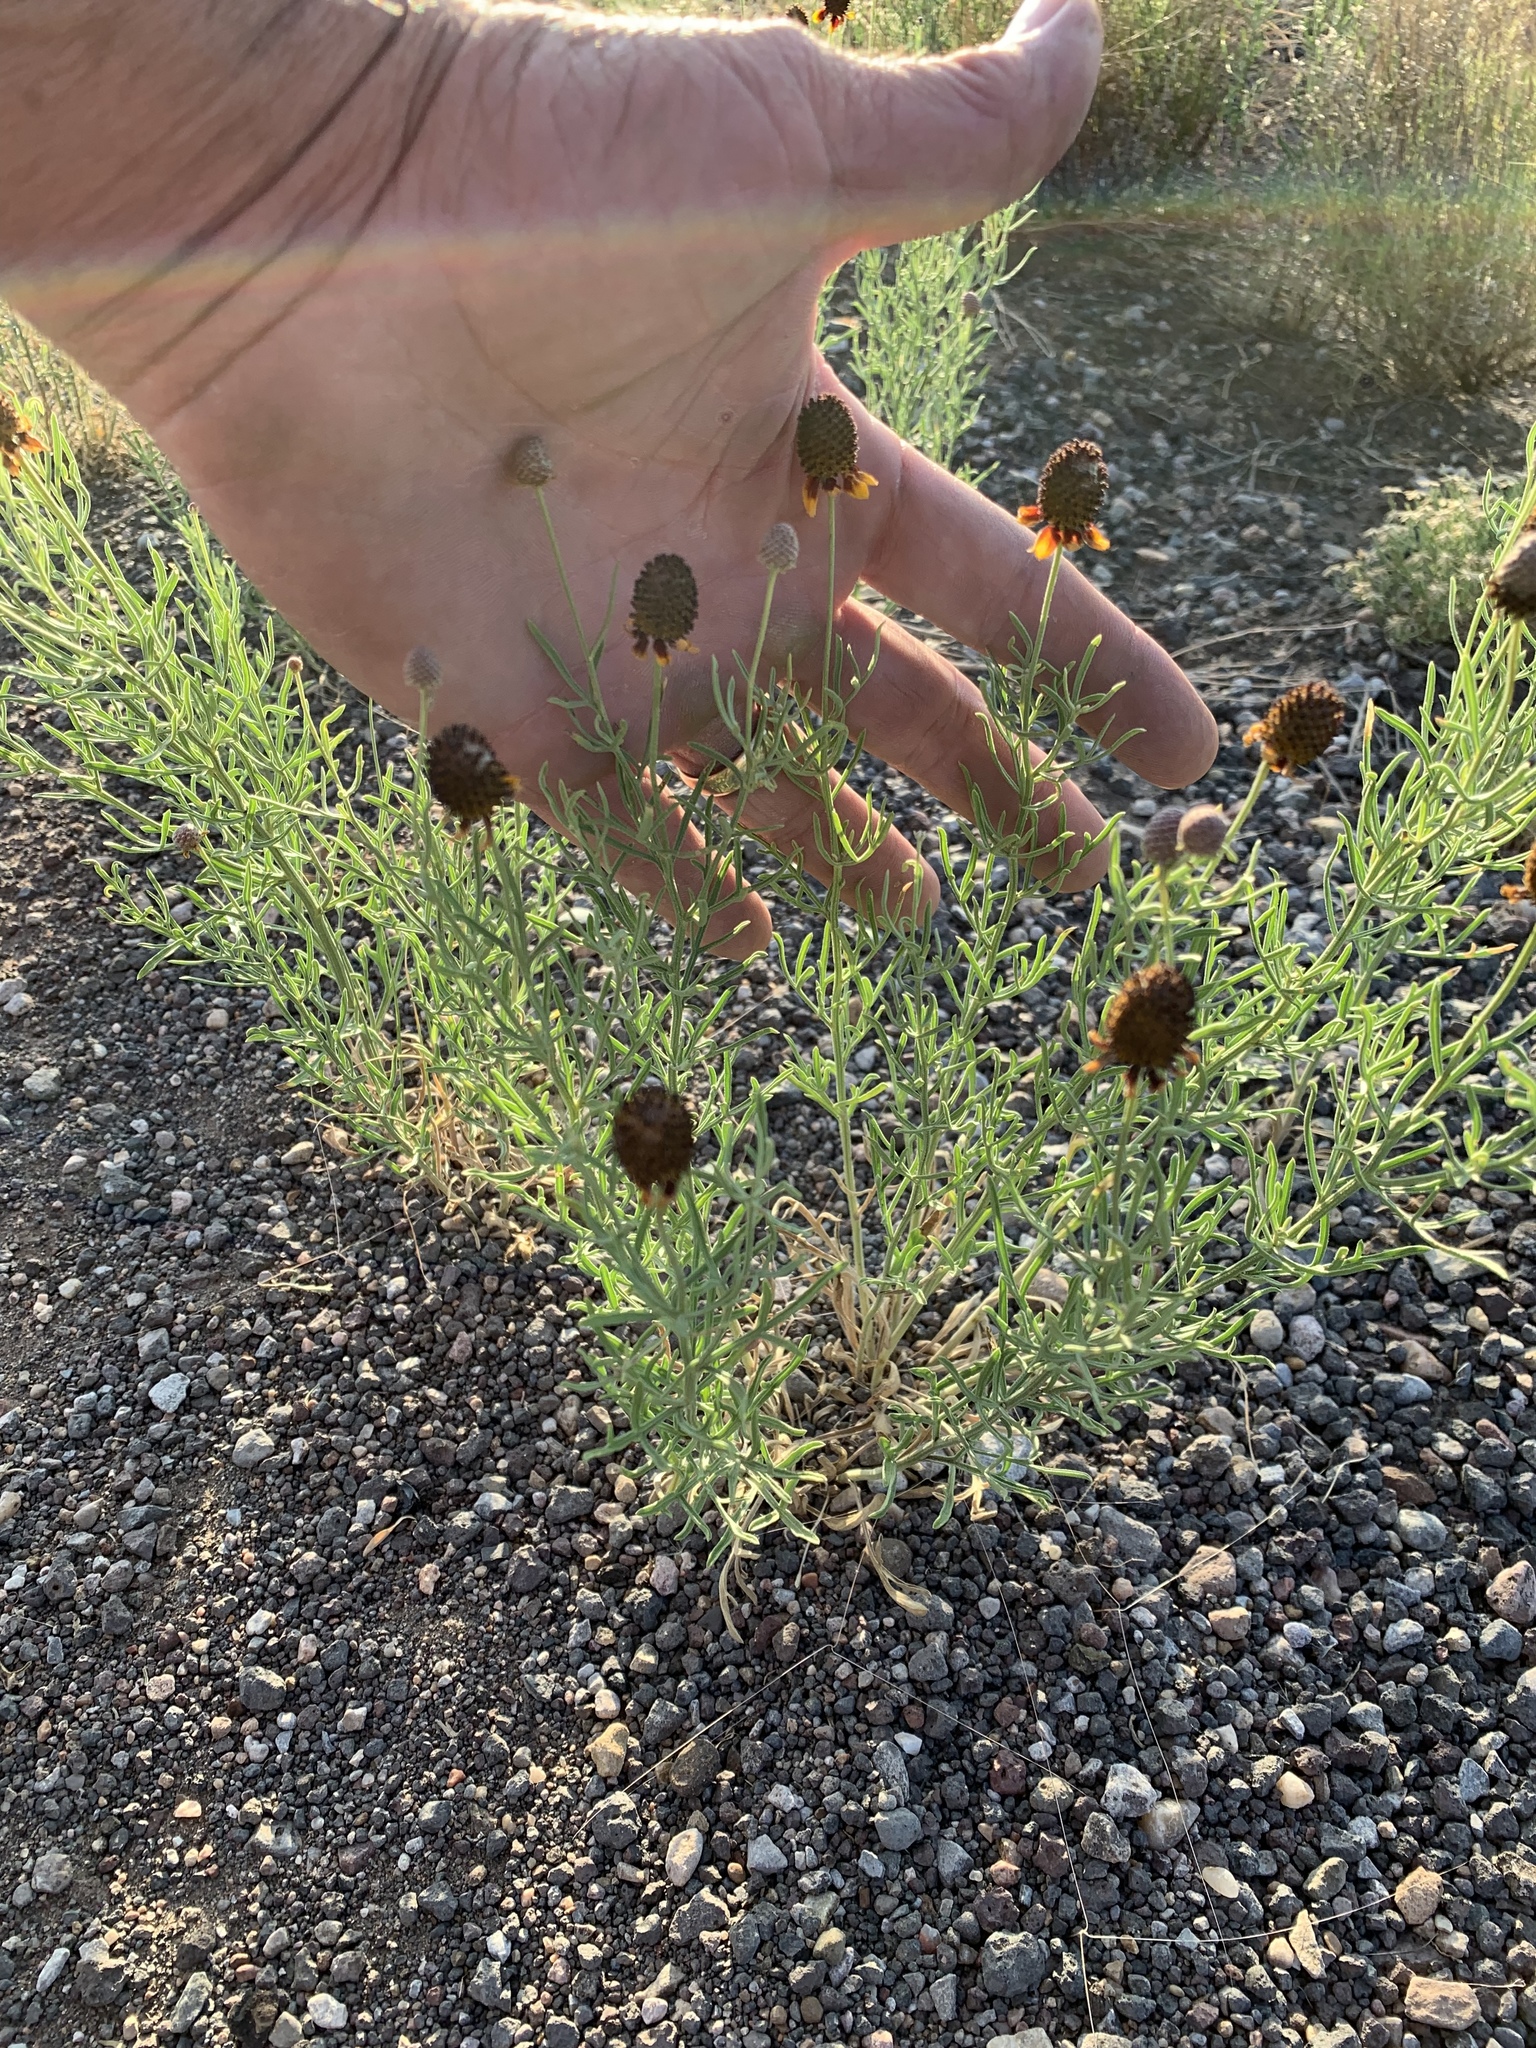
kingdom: Plantae
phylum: Tracheophyta
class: Magnoliopsida
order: Asterales
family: Asteraceae
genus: Ratibida
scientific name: Ratibida tagetes
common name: Green mexican-hat
